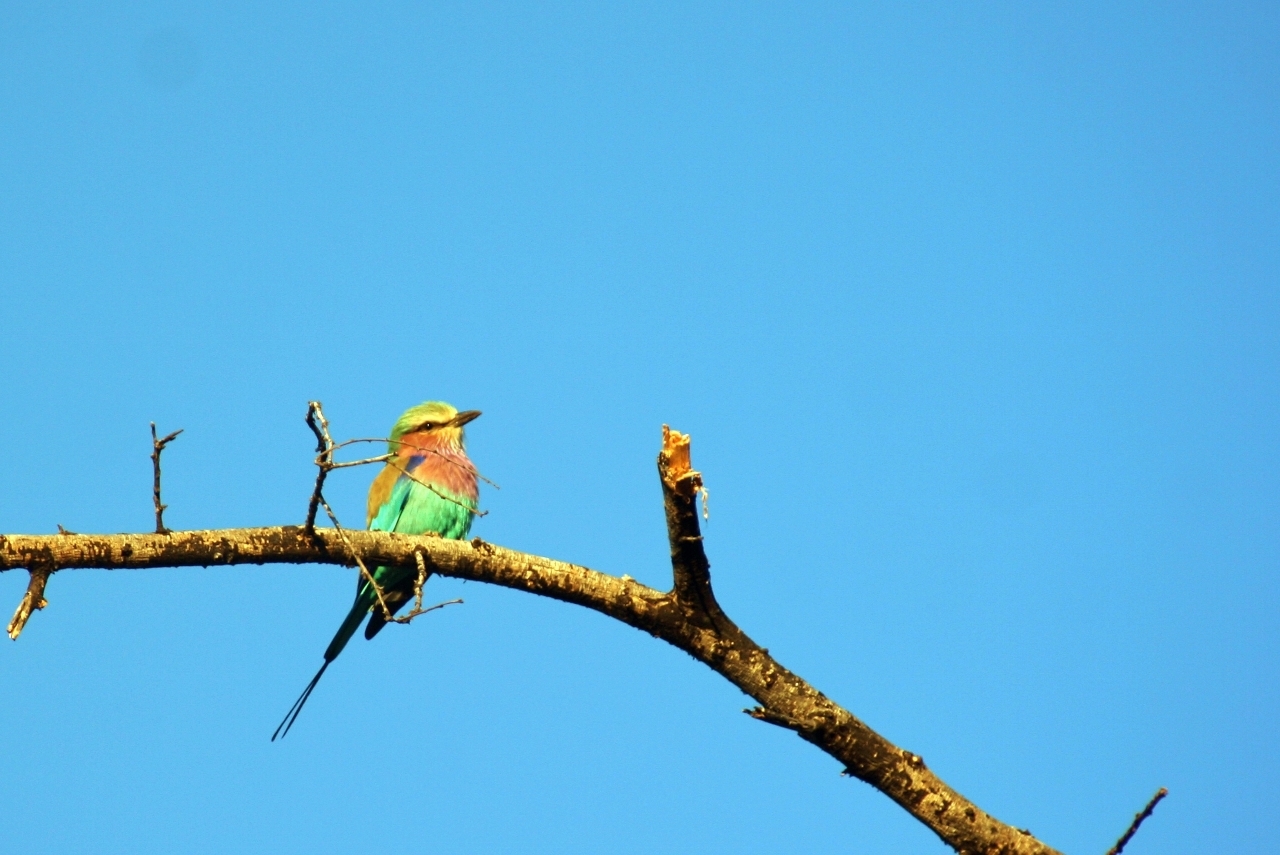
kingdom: Animalia
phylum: Chordata
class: Aves
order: Coraciiformes
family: Coraciidae
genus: Coracias
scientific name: Coracias caudatus
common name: Lilac-breasted roller
